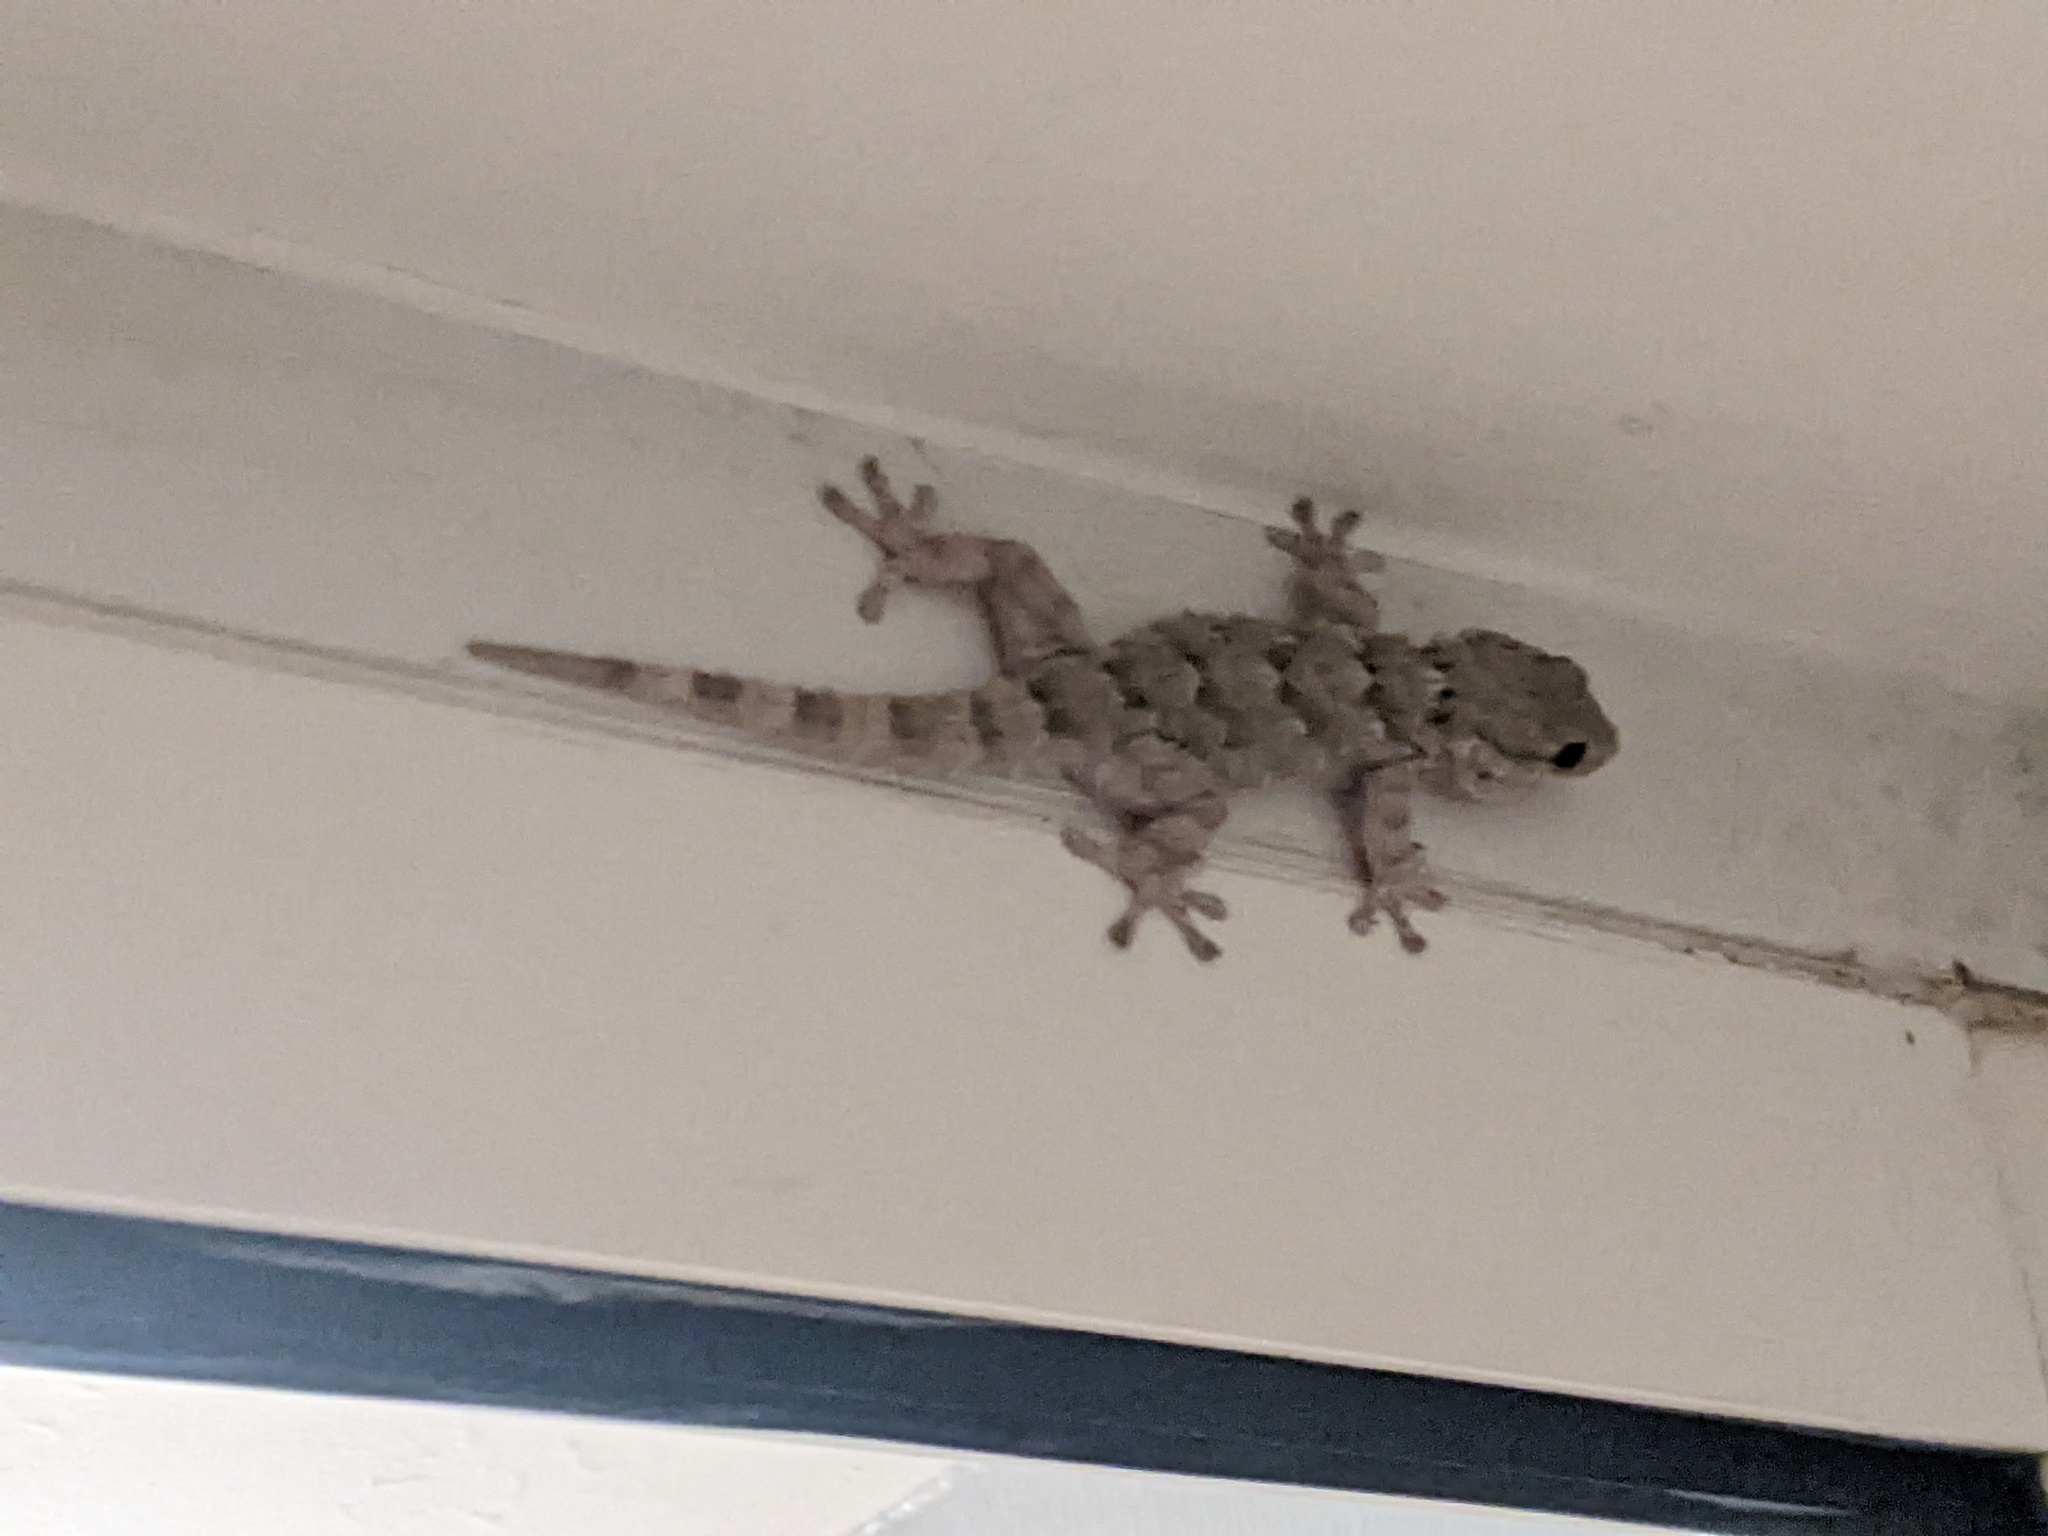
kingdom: Animalia
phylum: Chordata
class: Squamata
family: Phyllodactylidae
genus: Tarentola
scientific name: Tarentola mauritanica
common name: Moorish gecko
